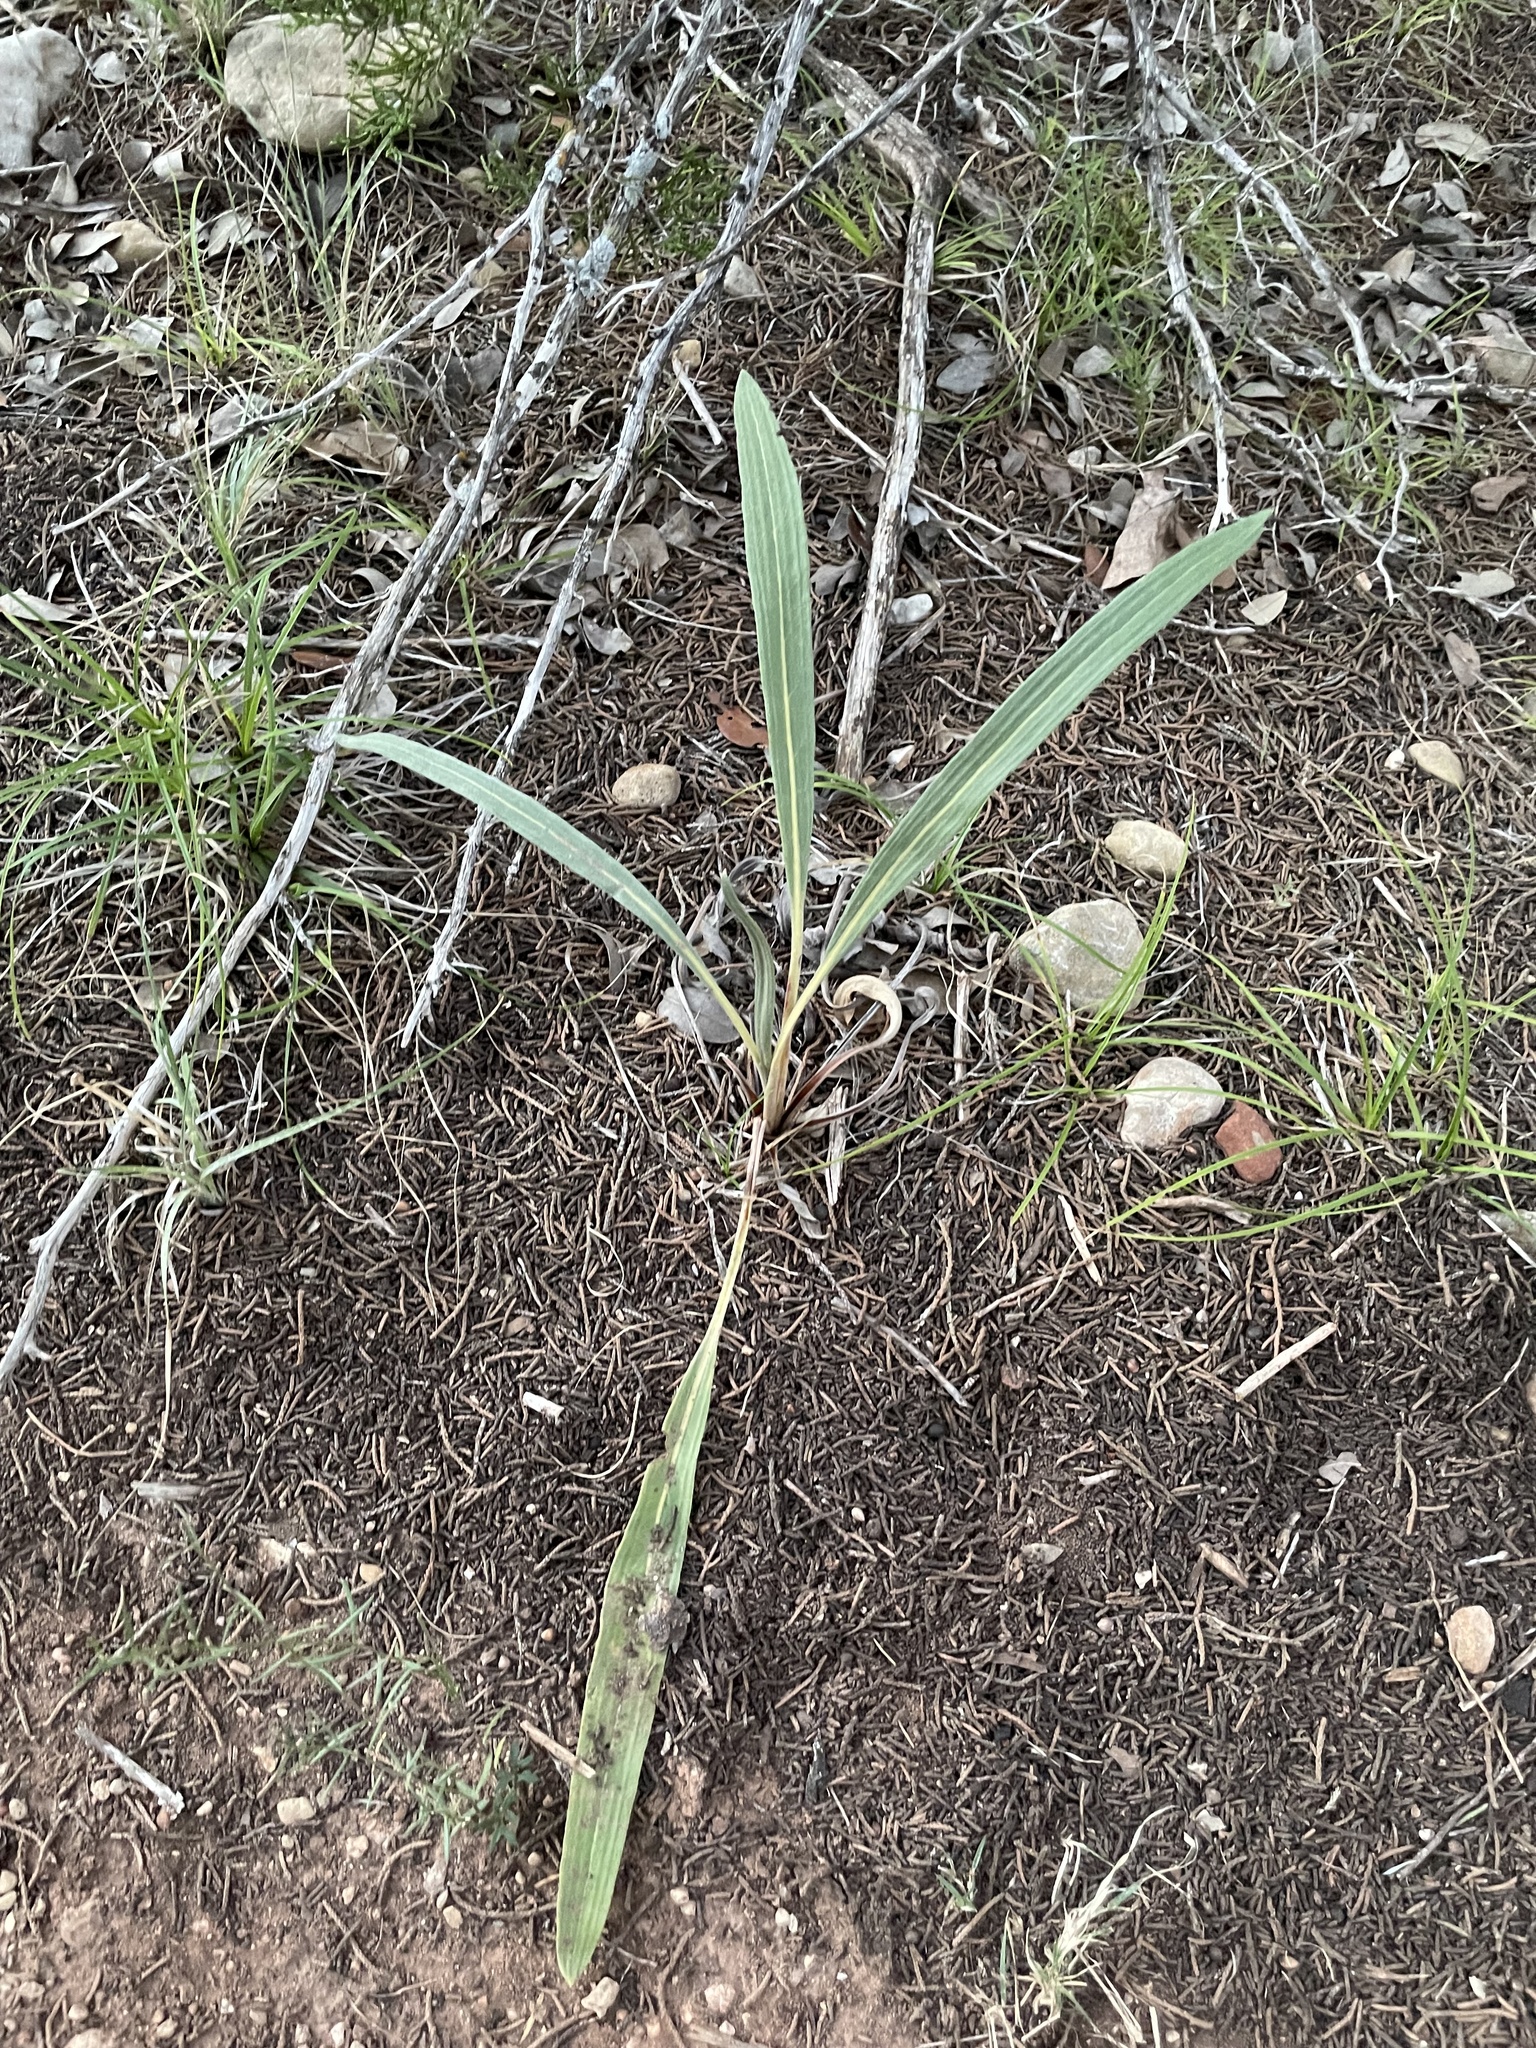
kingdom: Plantae
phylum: Tracheophyta
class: Magnoliopsida
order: Caryophyllales
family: Polygonaceae
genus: Eriogonum
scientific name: Eriogonum longifolium
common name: Longleaf wild buckwheat
